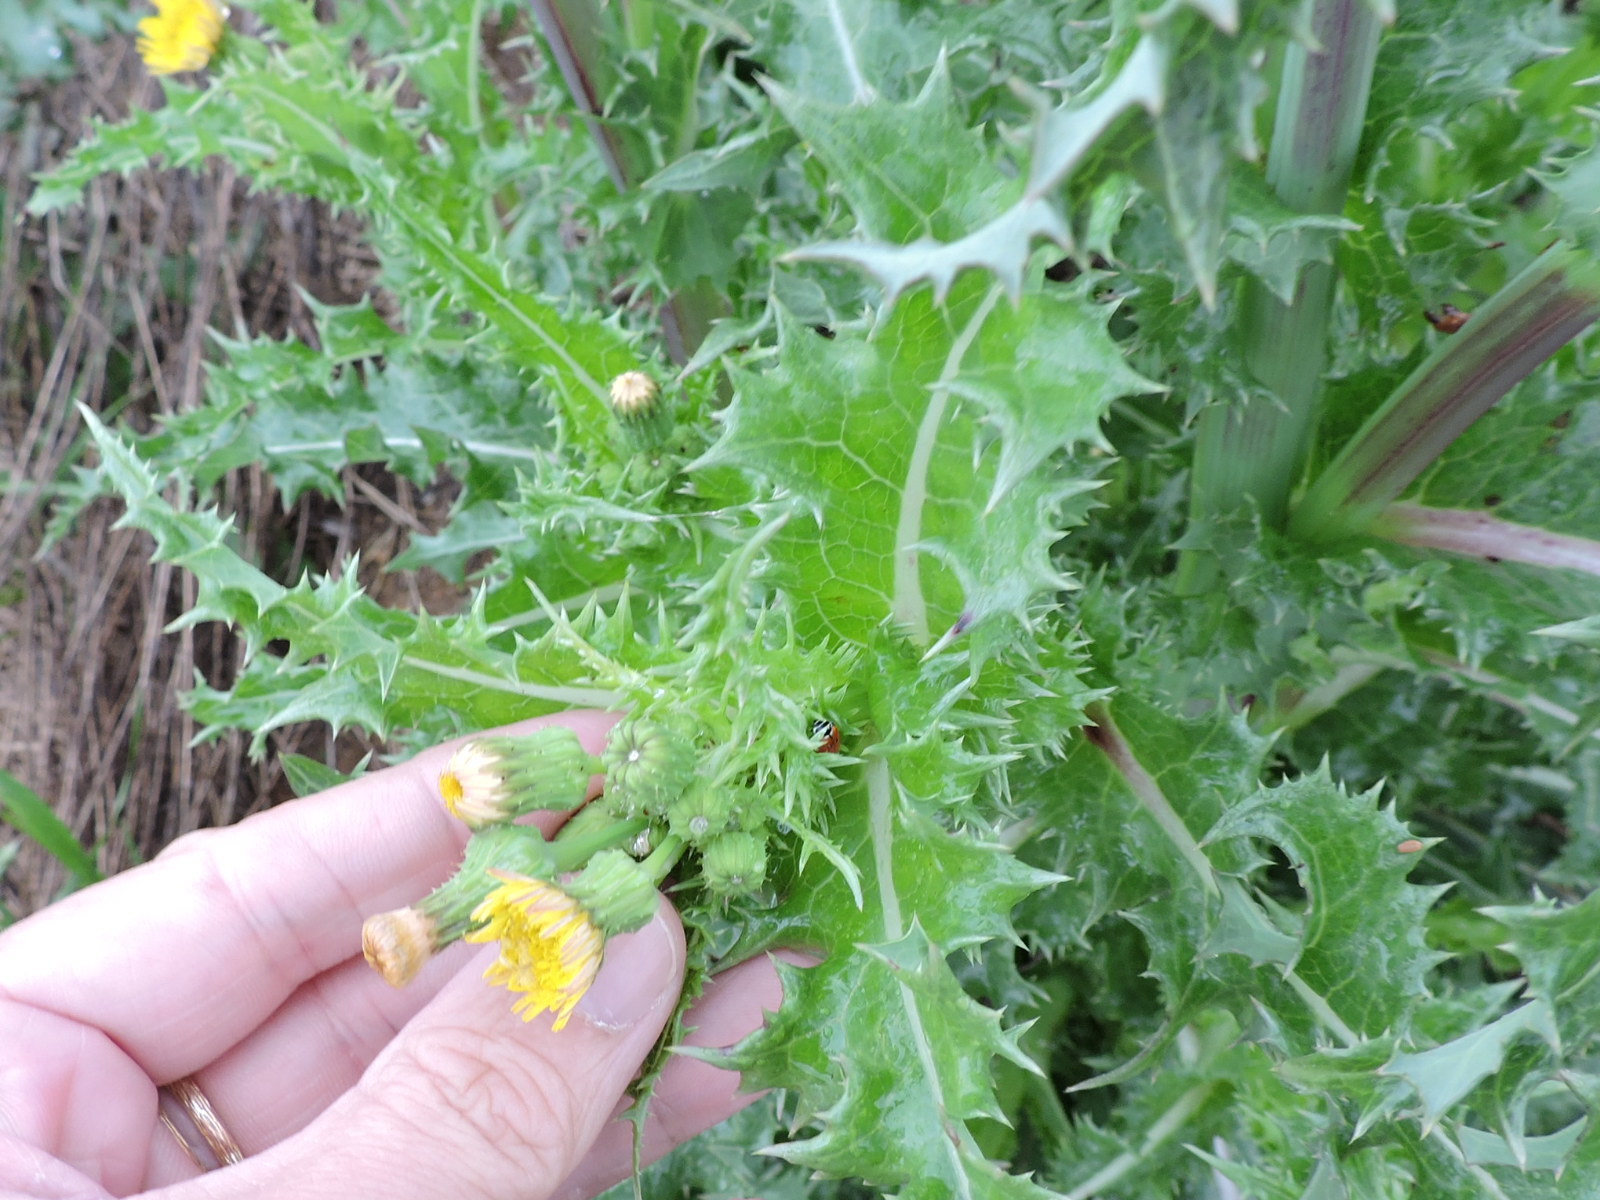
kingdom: Plantae
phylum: Tracheophyta
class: Magnoliopsida
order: Asterales
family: Asteraceae
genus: Sonchus
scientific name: Sonchus asper
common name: Prickly sow-thistle
